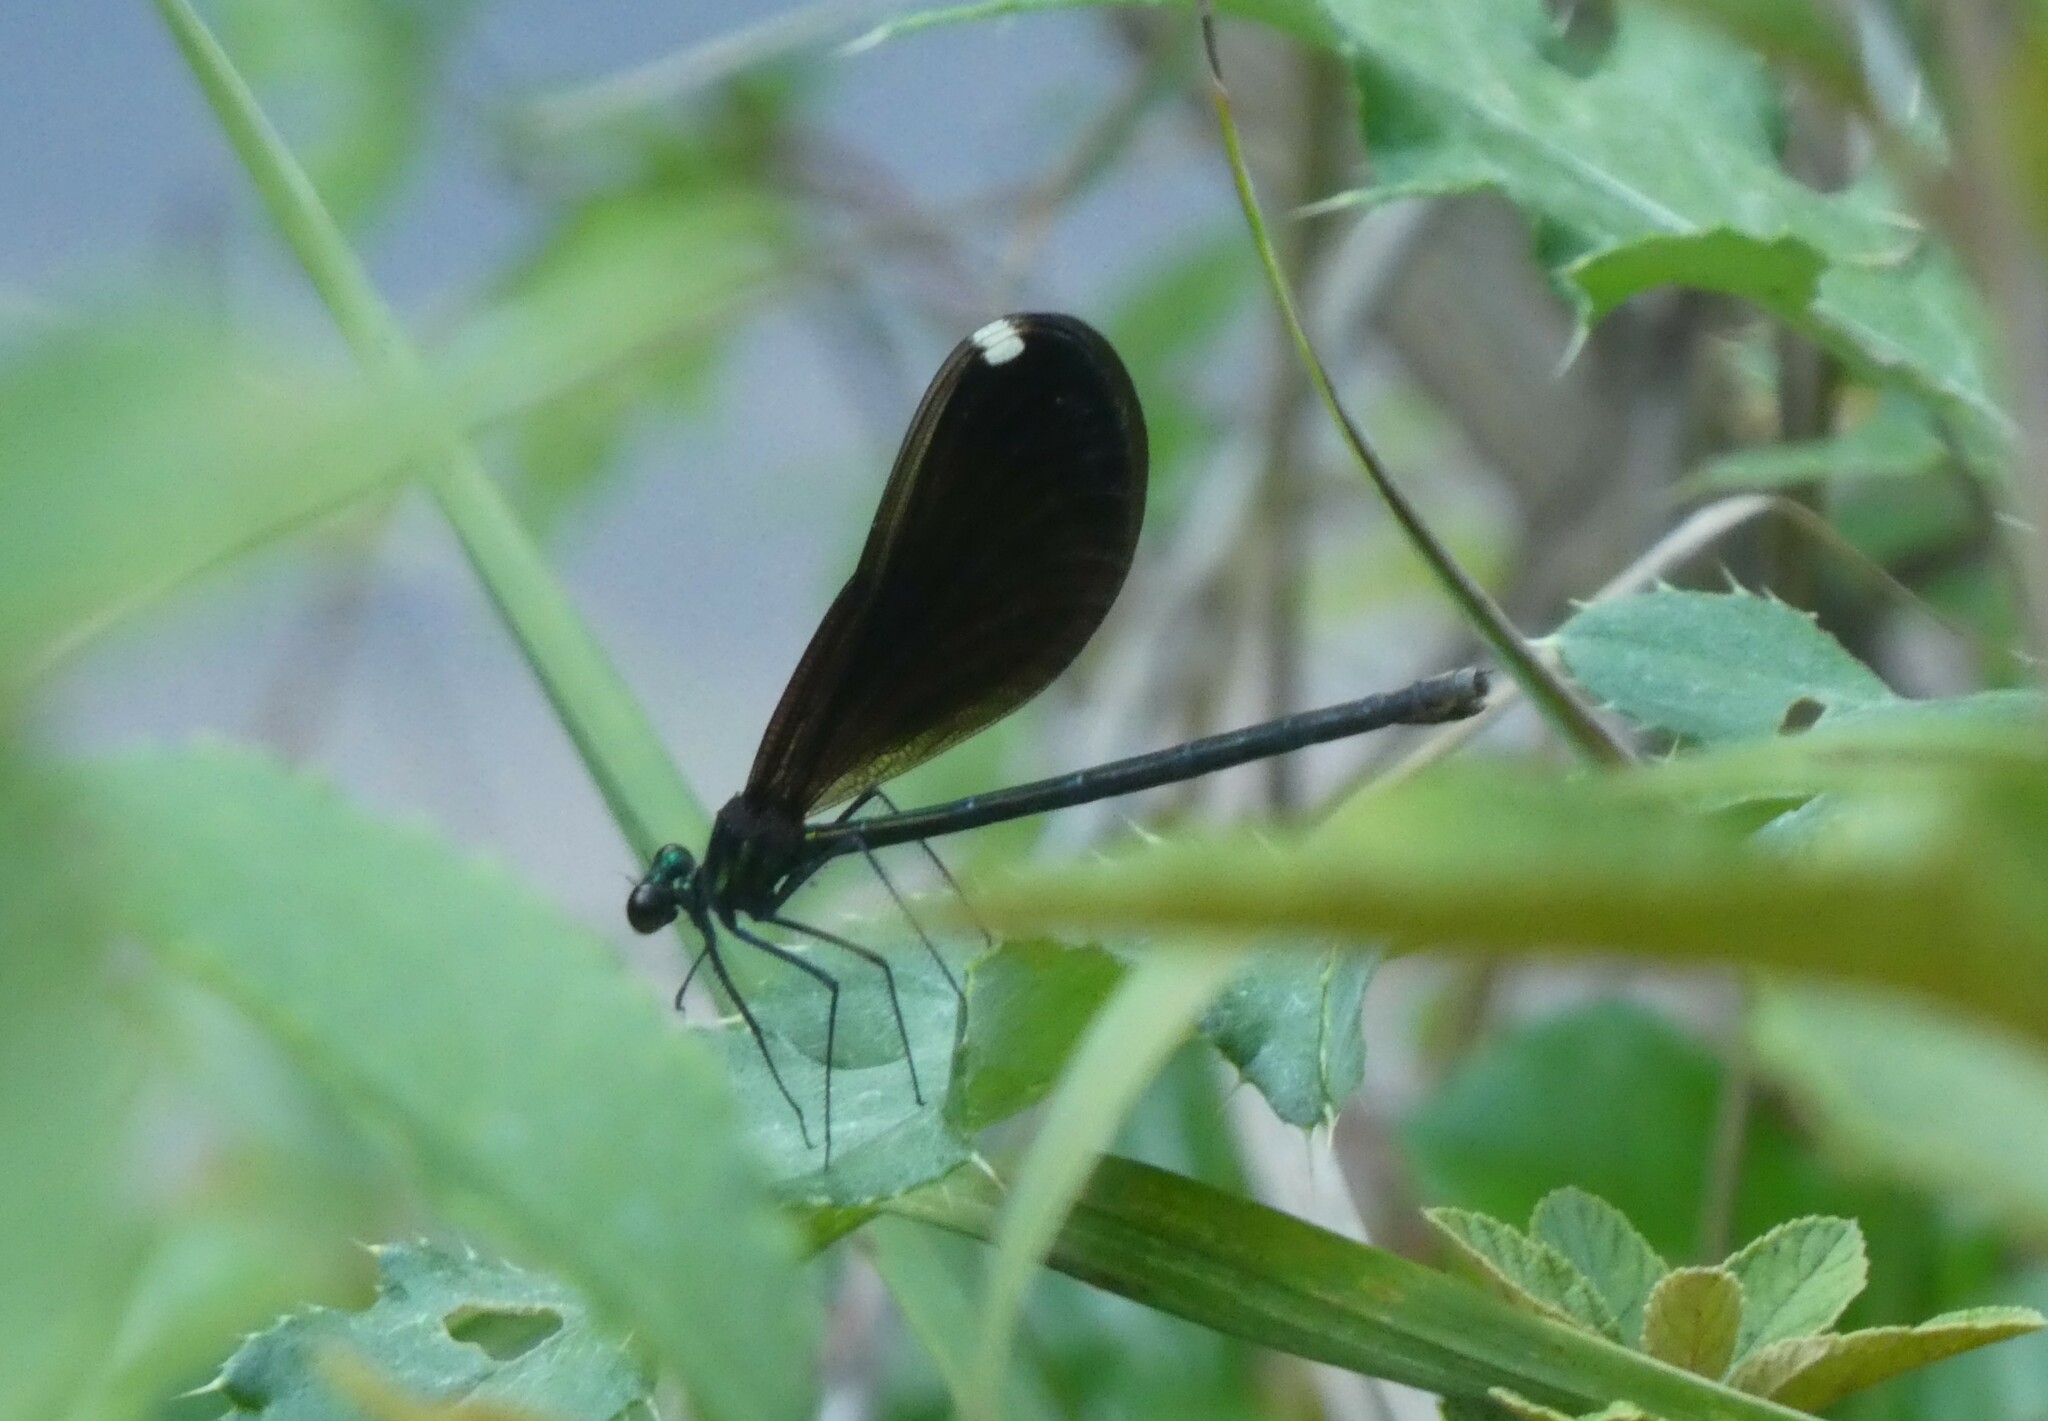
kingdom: Animalia
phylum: Arthropoda
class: Insecta
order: Odonata
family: Calopterygidae
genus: Calopteryx
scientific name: Calopteryx maculata
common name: Ebony jewelwing
